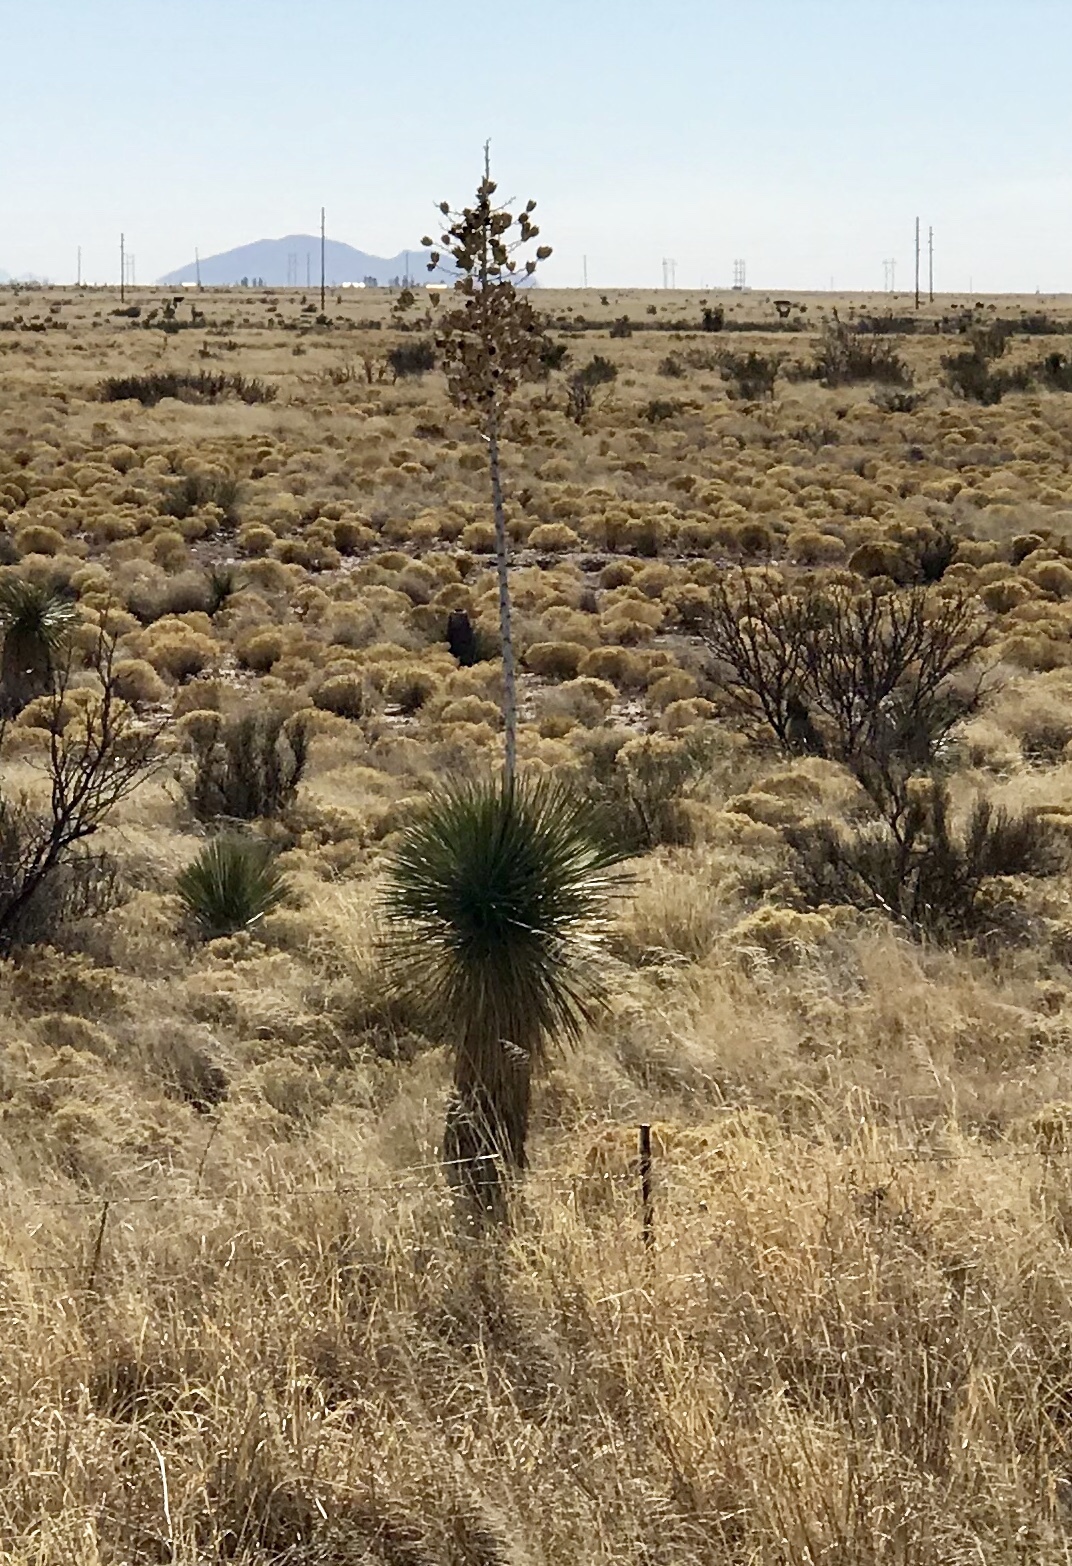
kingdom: Plantae
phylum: Tracheophyta
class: Liliopsida
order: Asparagales
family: Asparagaceae
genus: Yucca
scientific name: Yucca elata
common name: Palmella
